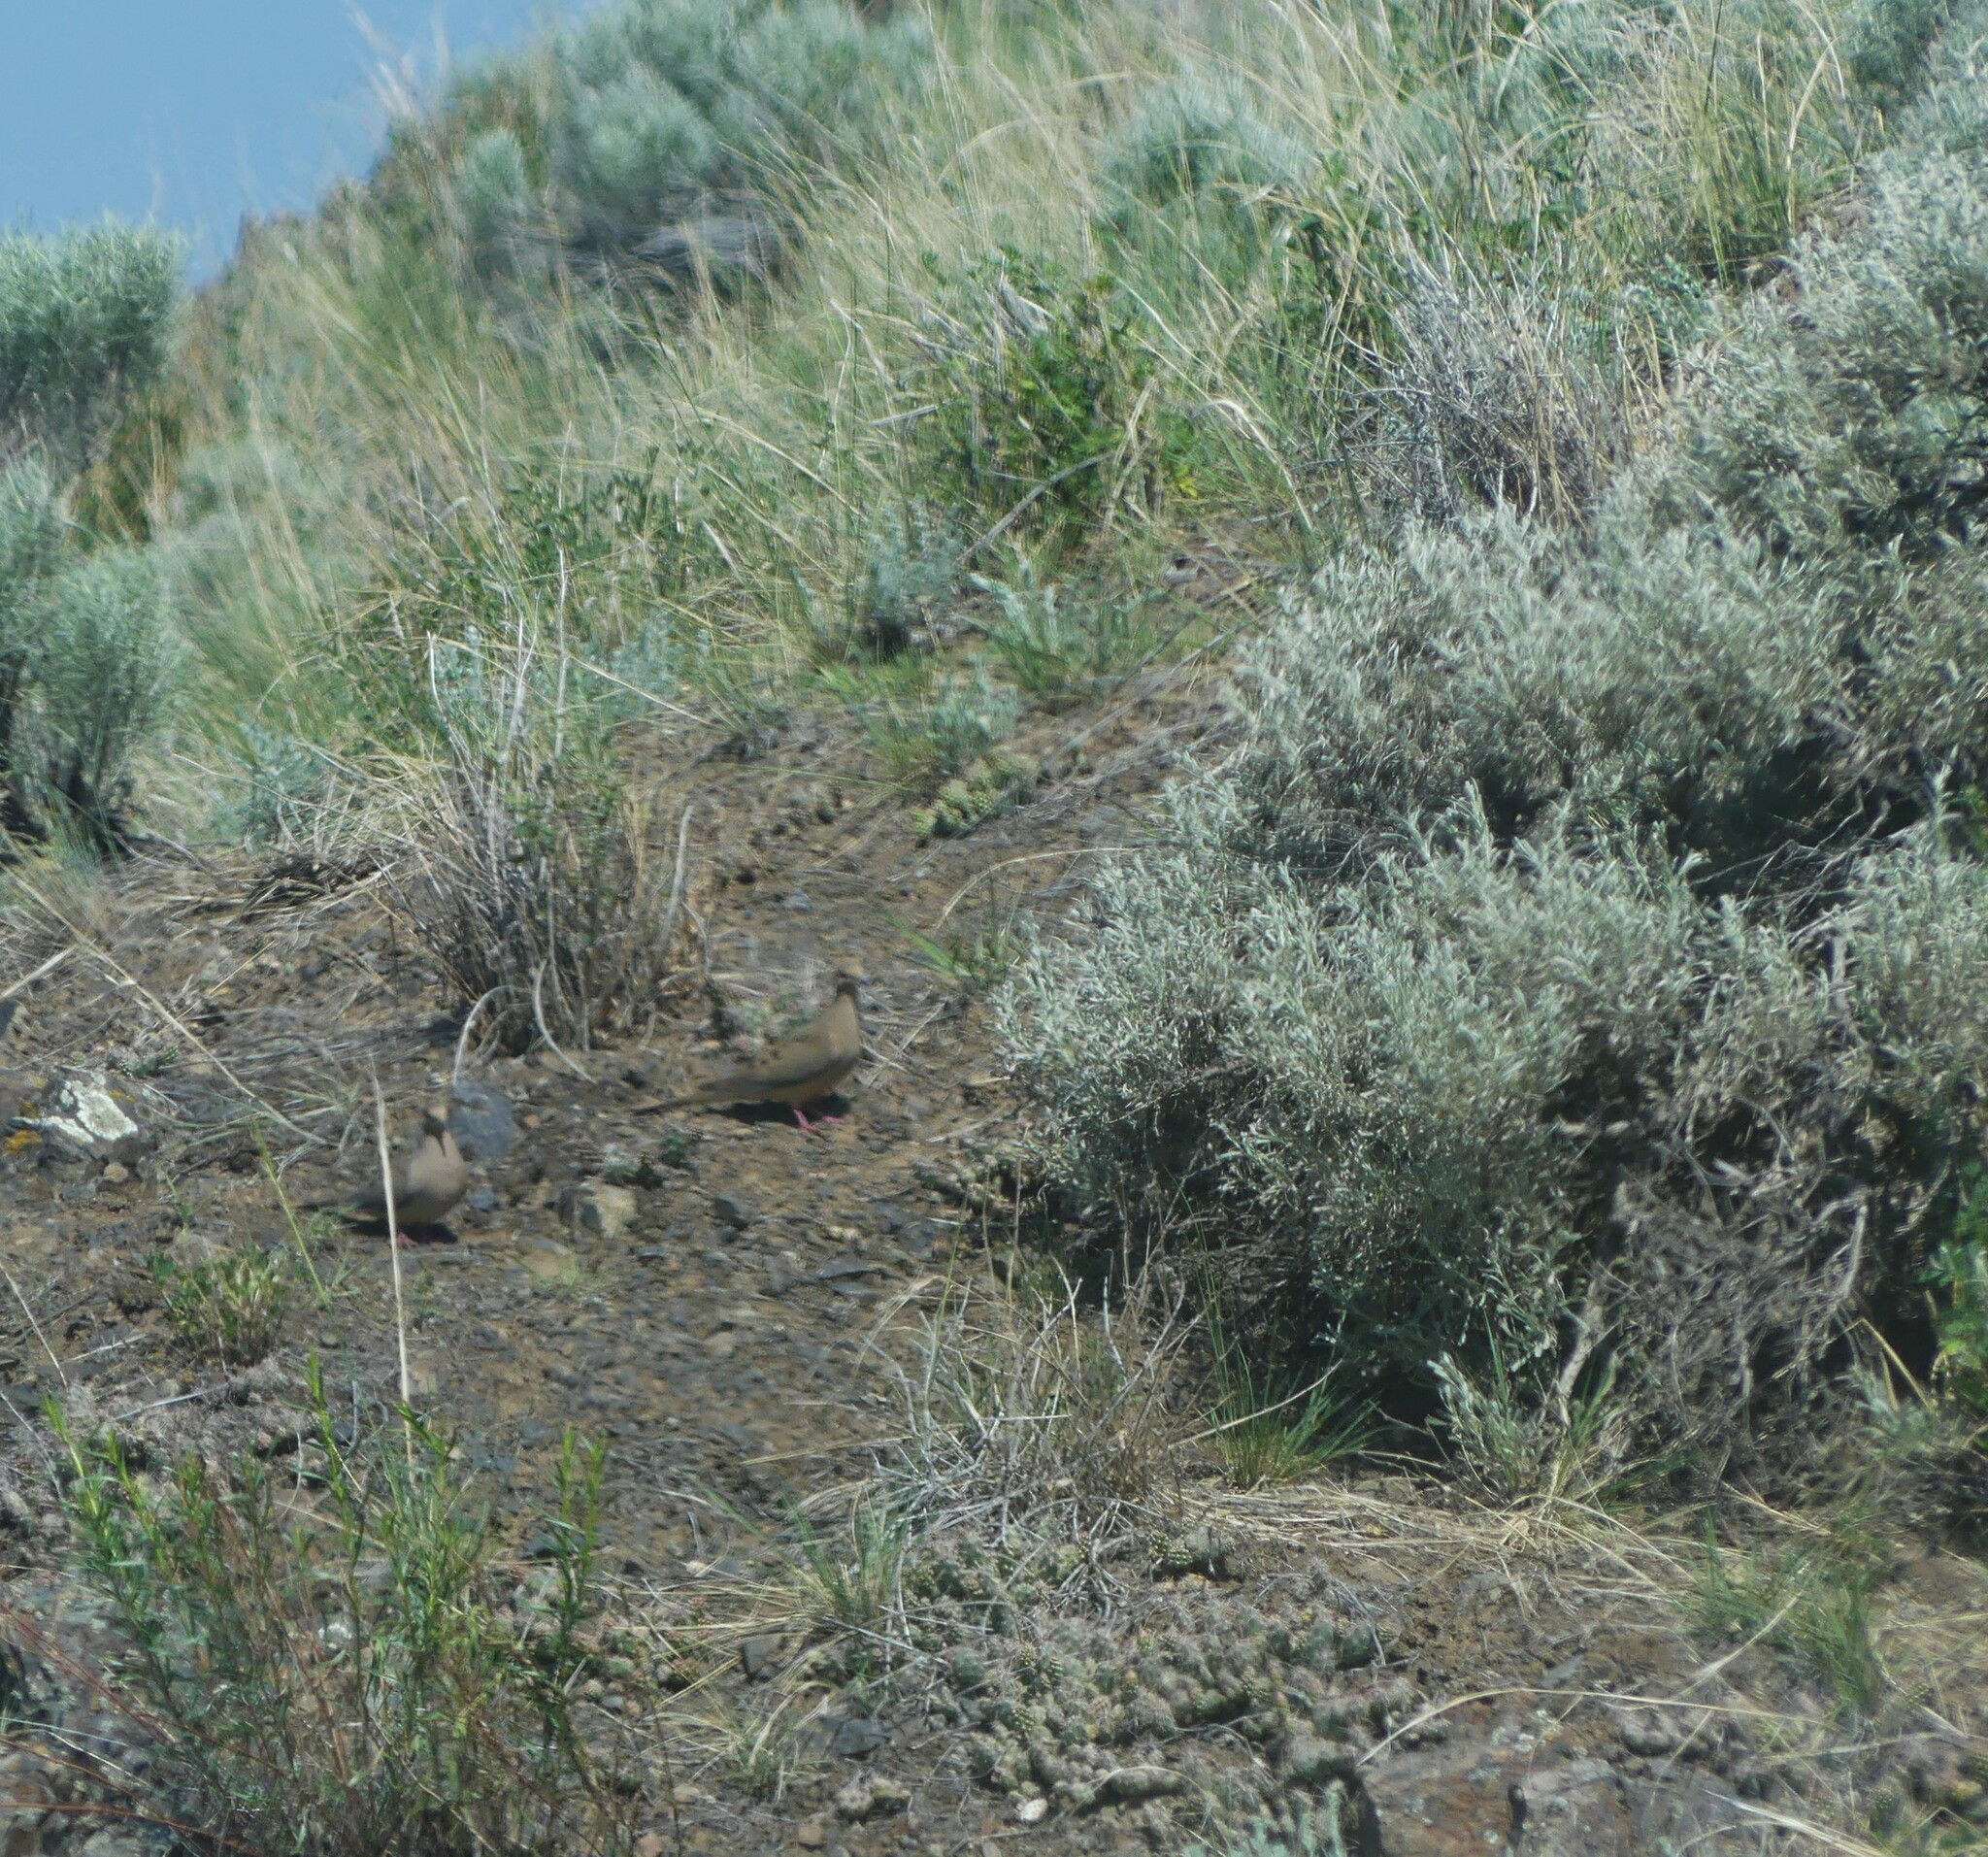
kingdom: Animalia
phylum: Chordata
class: Aves
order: Columbiformes
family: Columbidae
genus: Zenaida
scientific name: Zenaida macroura
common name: Mourning dove
